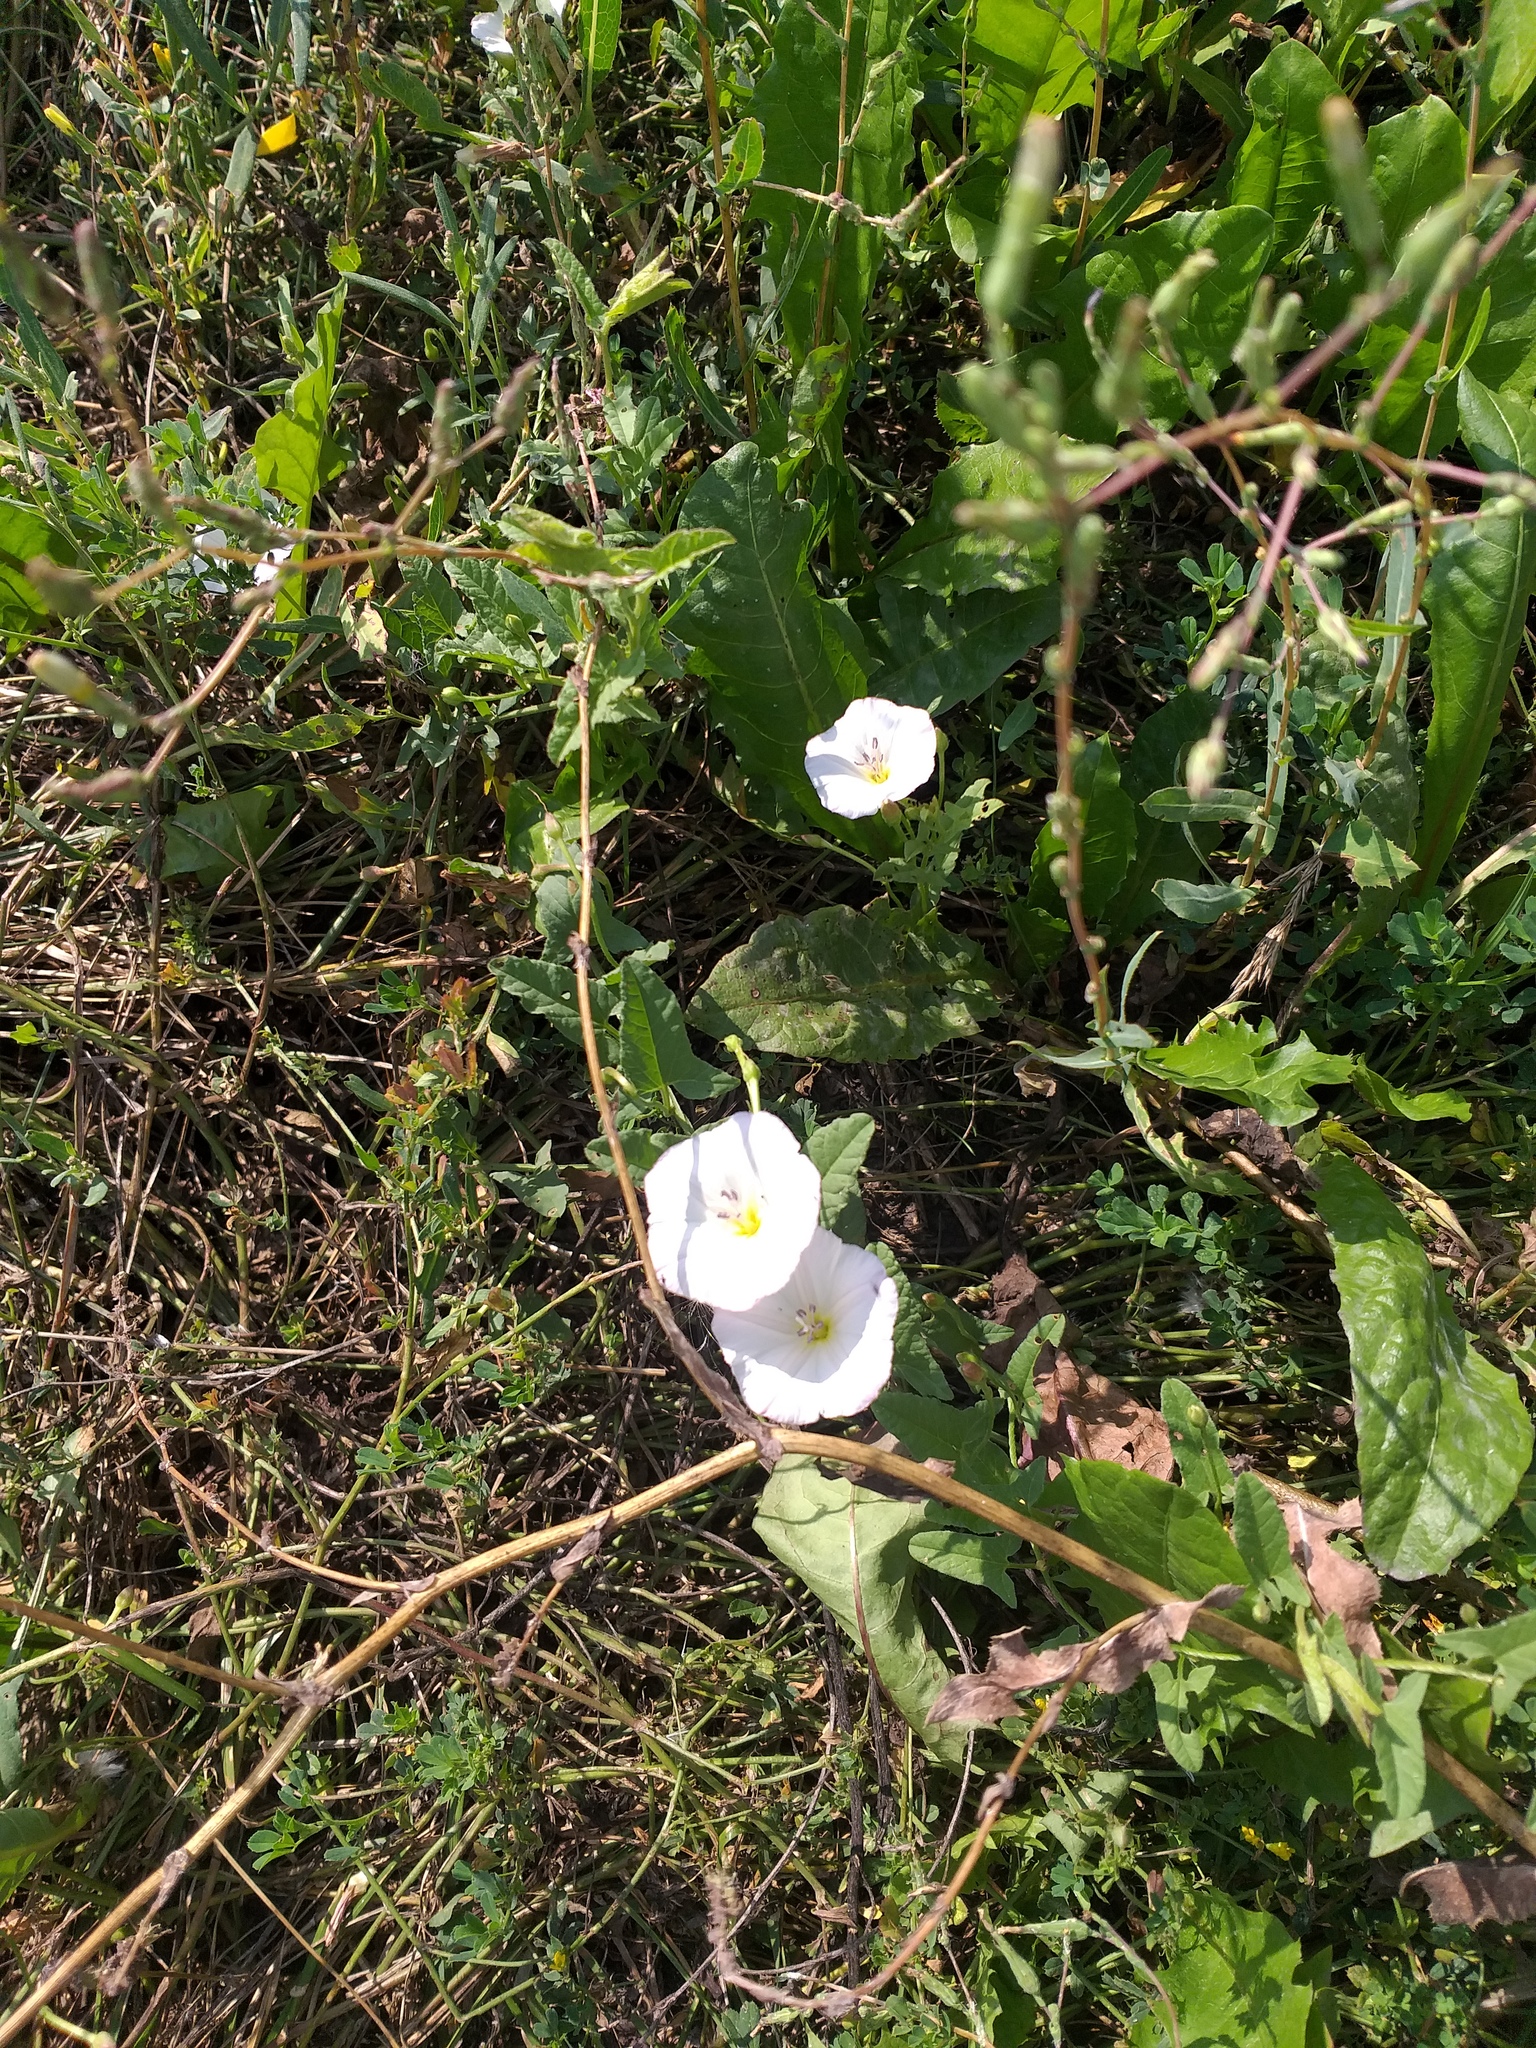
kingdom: Plantae
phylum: Tracheophyta
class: Magnoliopsida
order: Solanales
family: Convolvulaceae
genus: Convolvulus
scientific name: Convolvulus arvensis
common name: Field bindweed
